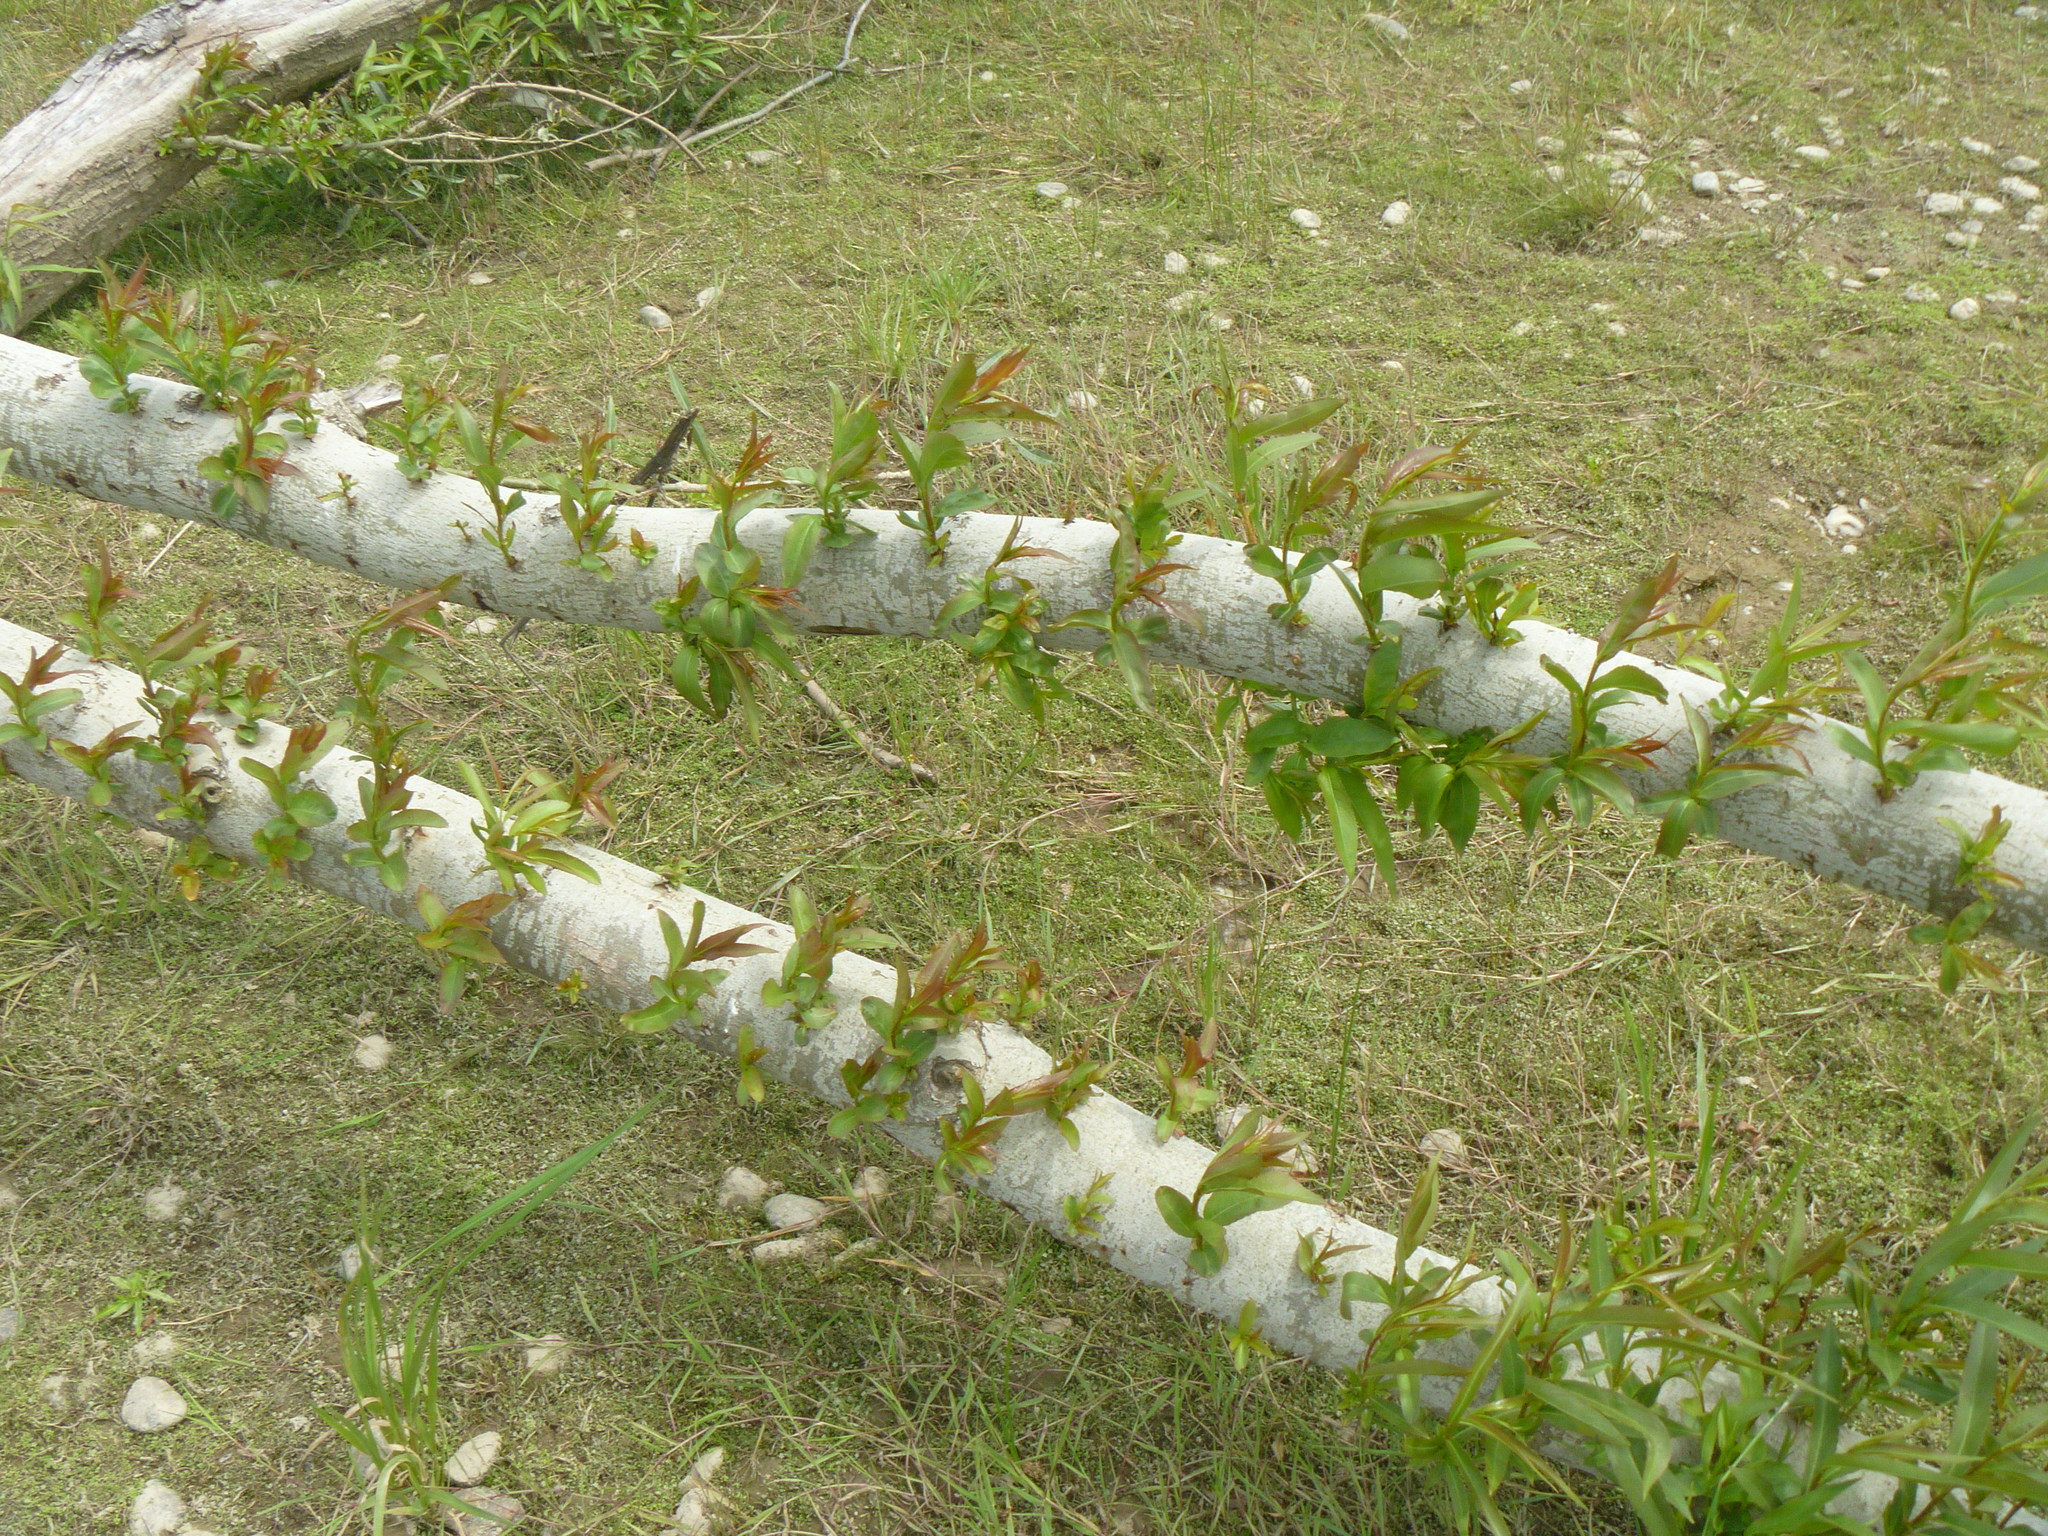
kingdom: Plantae
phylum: Tracheophyta
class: Magnoliopsida
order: Malpighiales
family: Salicaceae
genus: Salix
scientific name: Salix alba
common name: White willow
